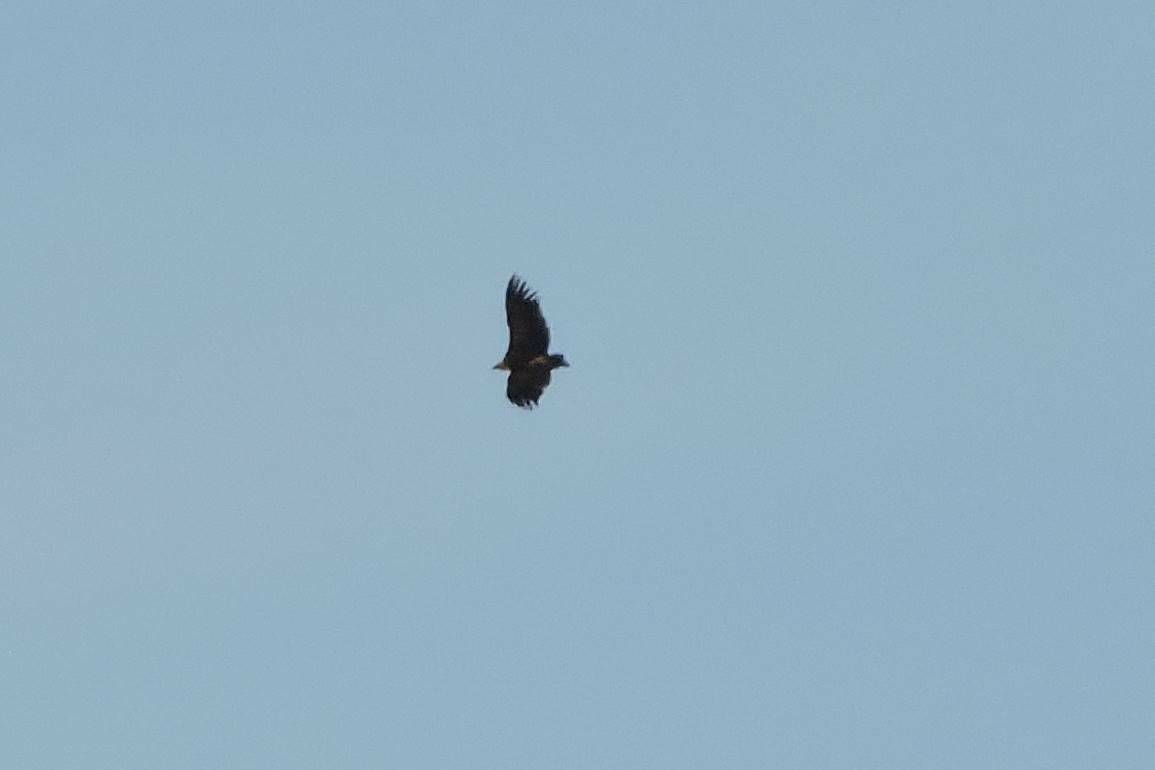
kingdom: Animalia
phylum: Chordata
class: Aves
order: Accipitriformes
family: Accipitridae
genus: Gyps
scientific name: Gyps fulvus
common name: Griffon vulture
